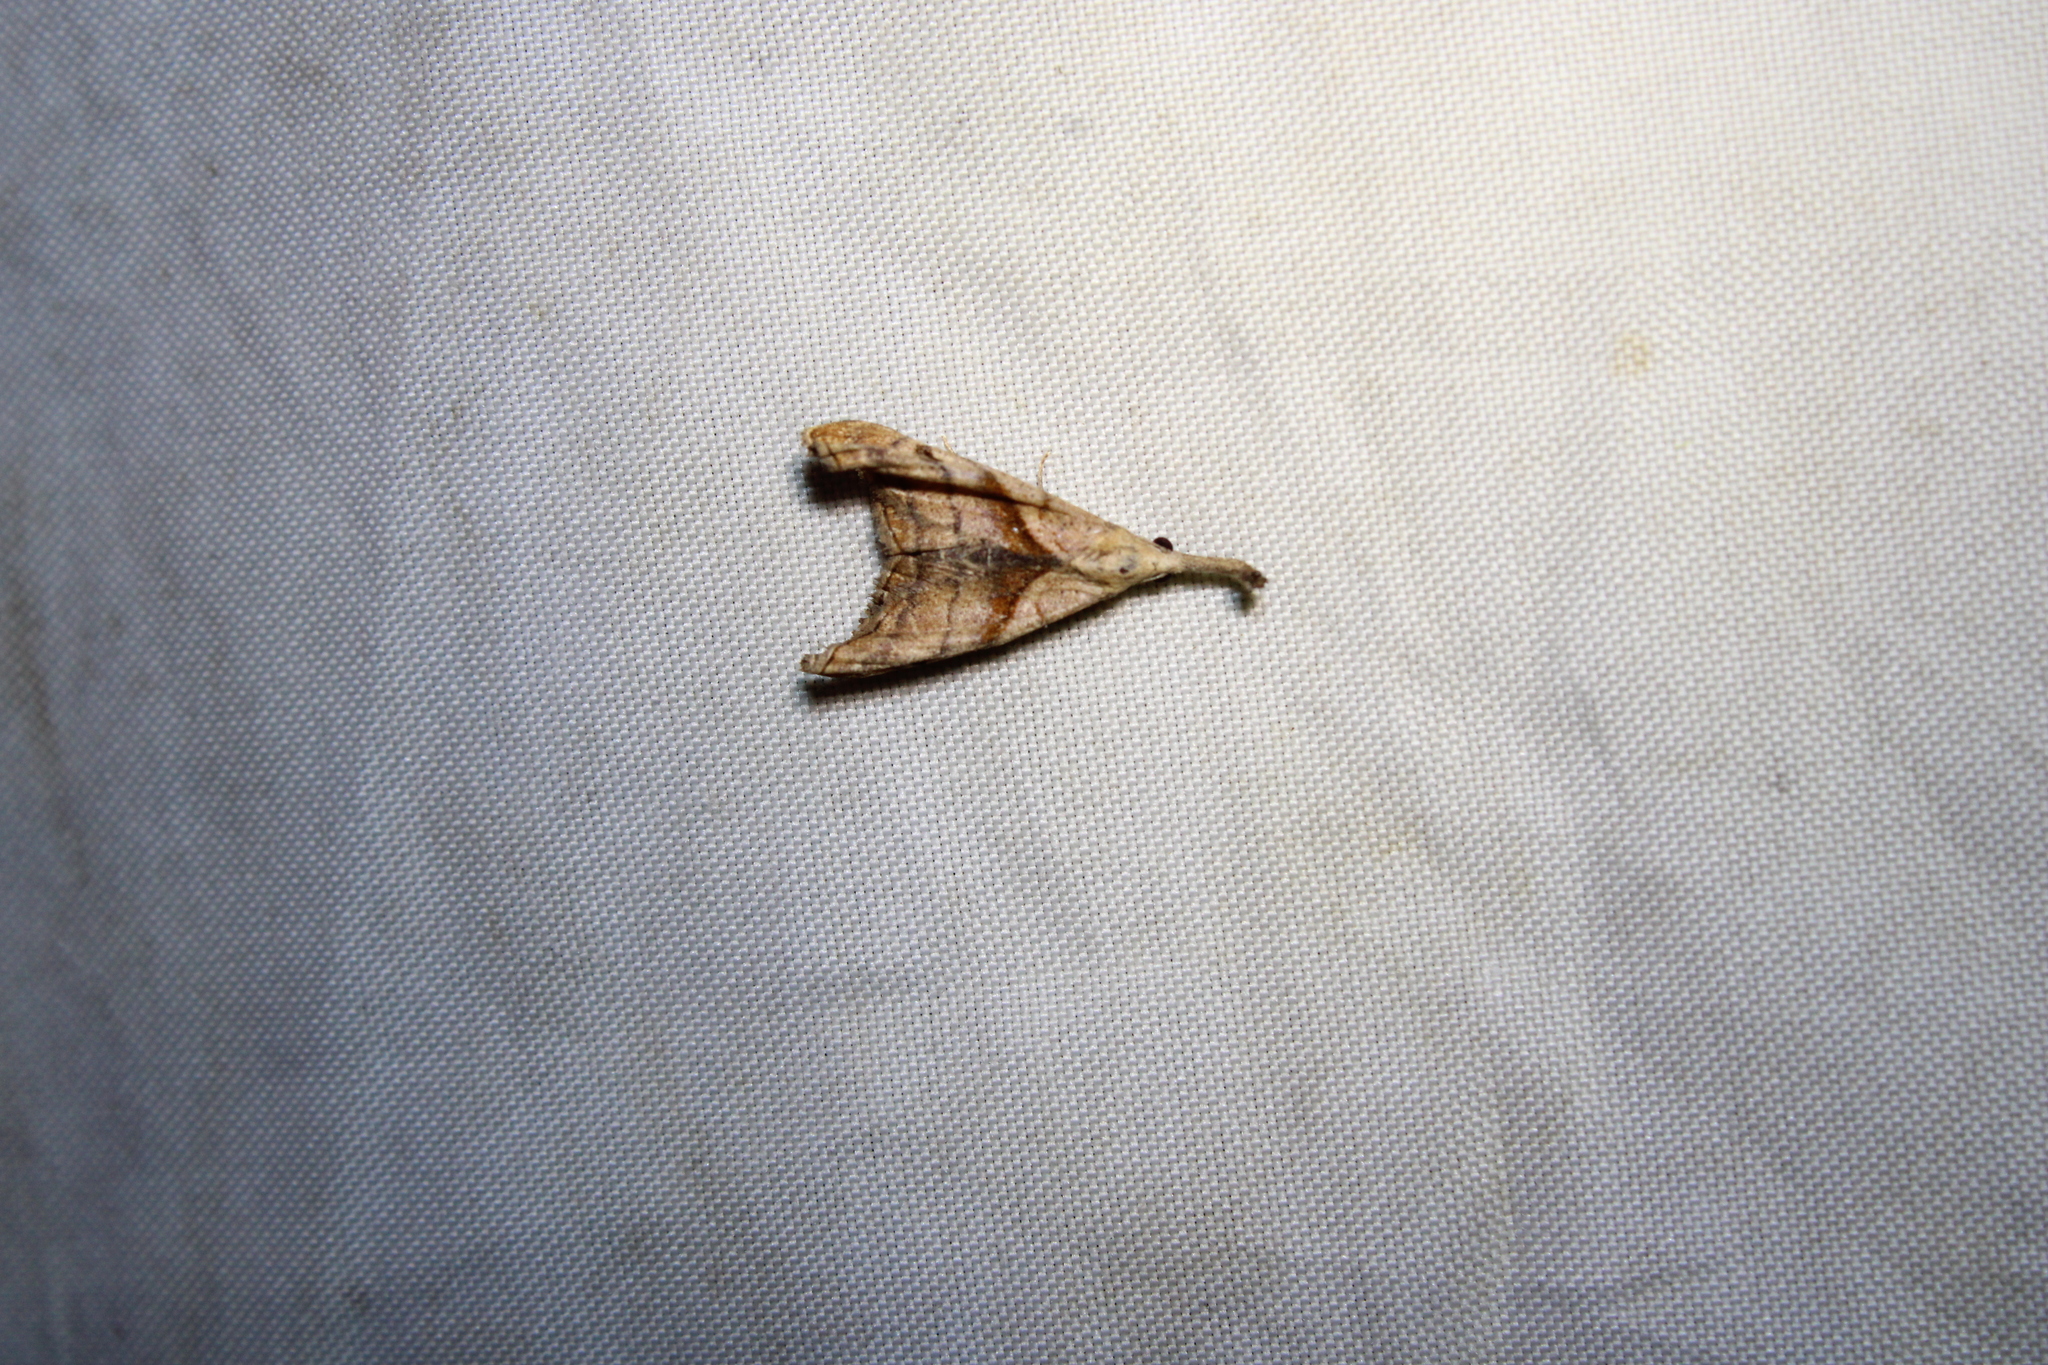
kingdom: Animalia
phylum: Arthropoda
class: Insecta
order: Lepidoptera
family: Erebidae
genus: Palthis
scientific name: Palthis angulalis
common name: Dark-spotted palthis moth
